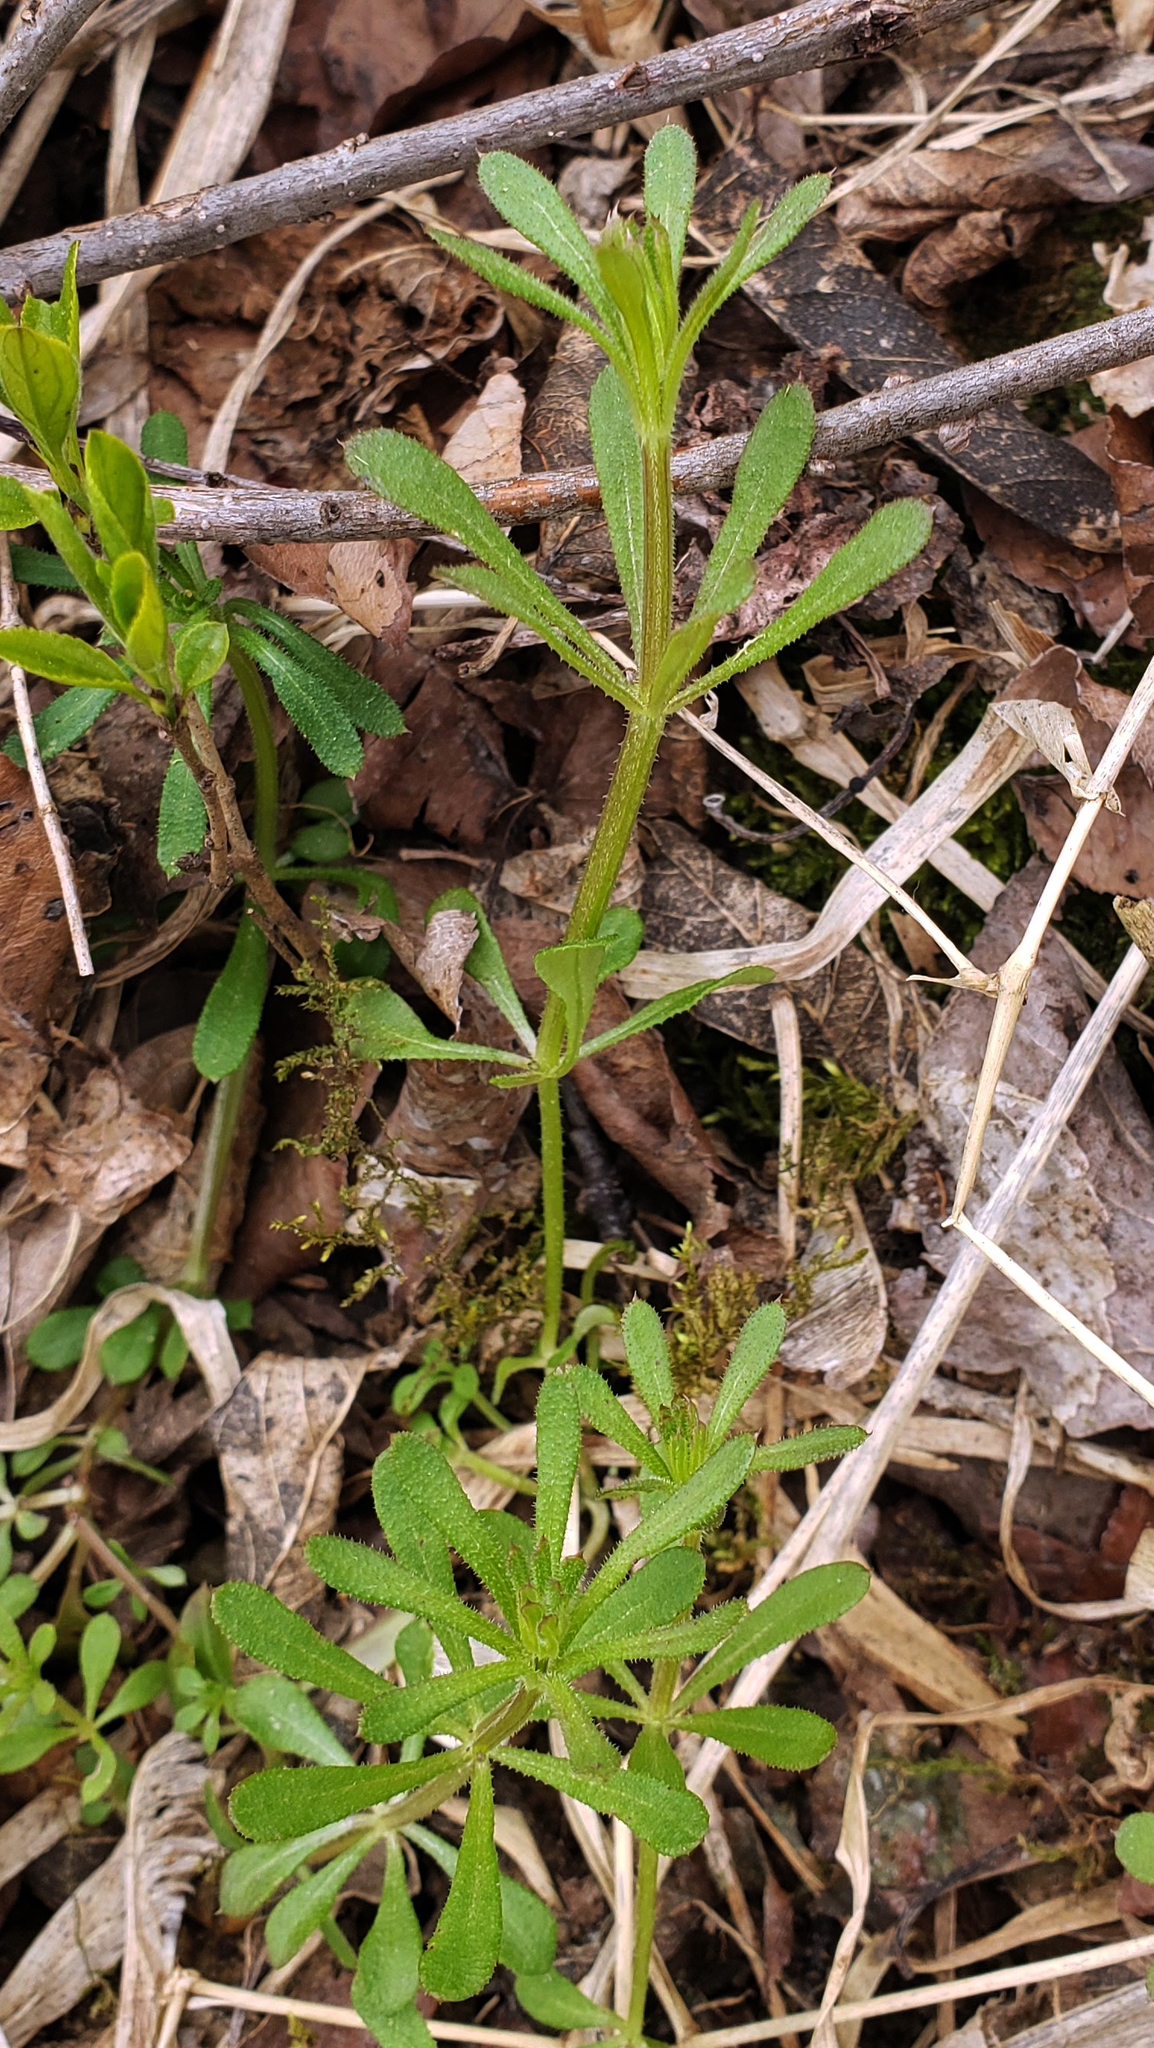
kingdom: Plantae
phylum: Tracheophyta
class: Magnoliopsida
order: Gentianales
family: Rubiaceae
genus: Galium
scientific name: Galium aparine
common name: Cleavers
